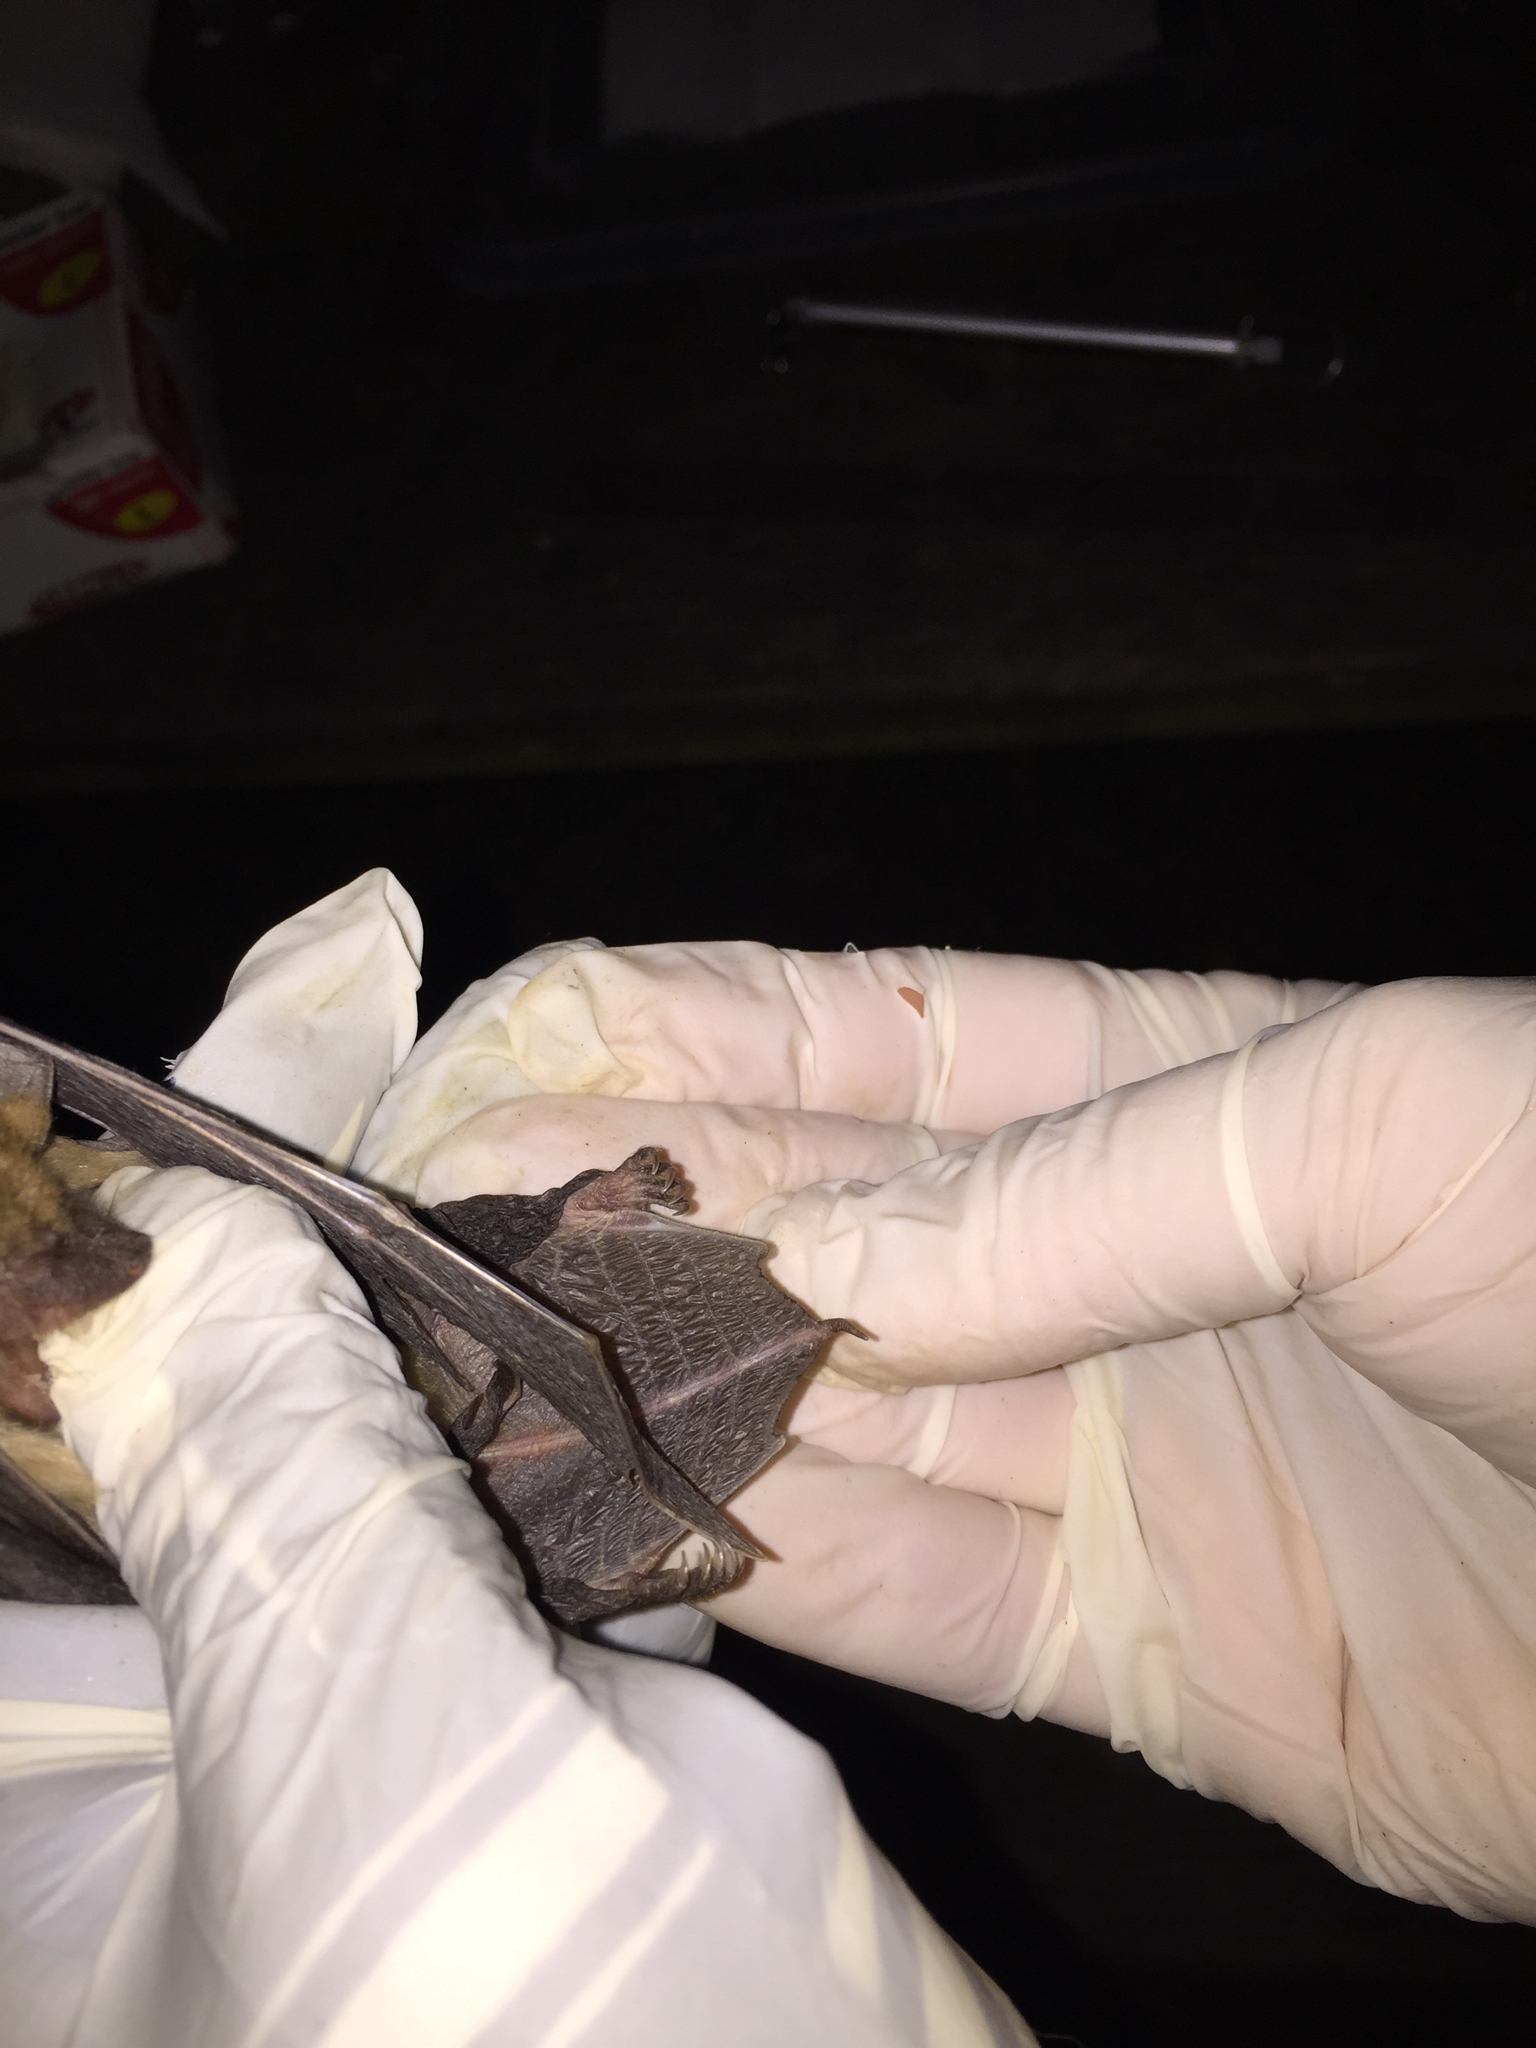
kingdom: Animalia
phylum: Chordata
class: Mammalia
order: Chiroptera
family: Vespertilionidae
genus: Eptesicus
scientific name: Eptesicus fuscus
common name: Big brown bat
